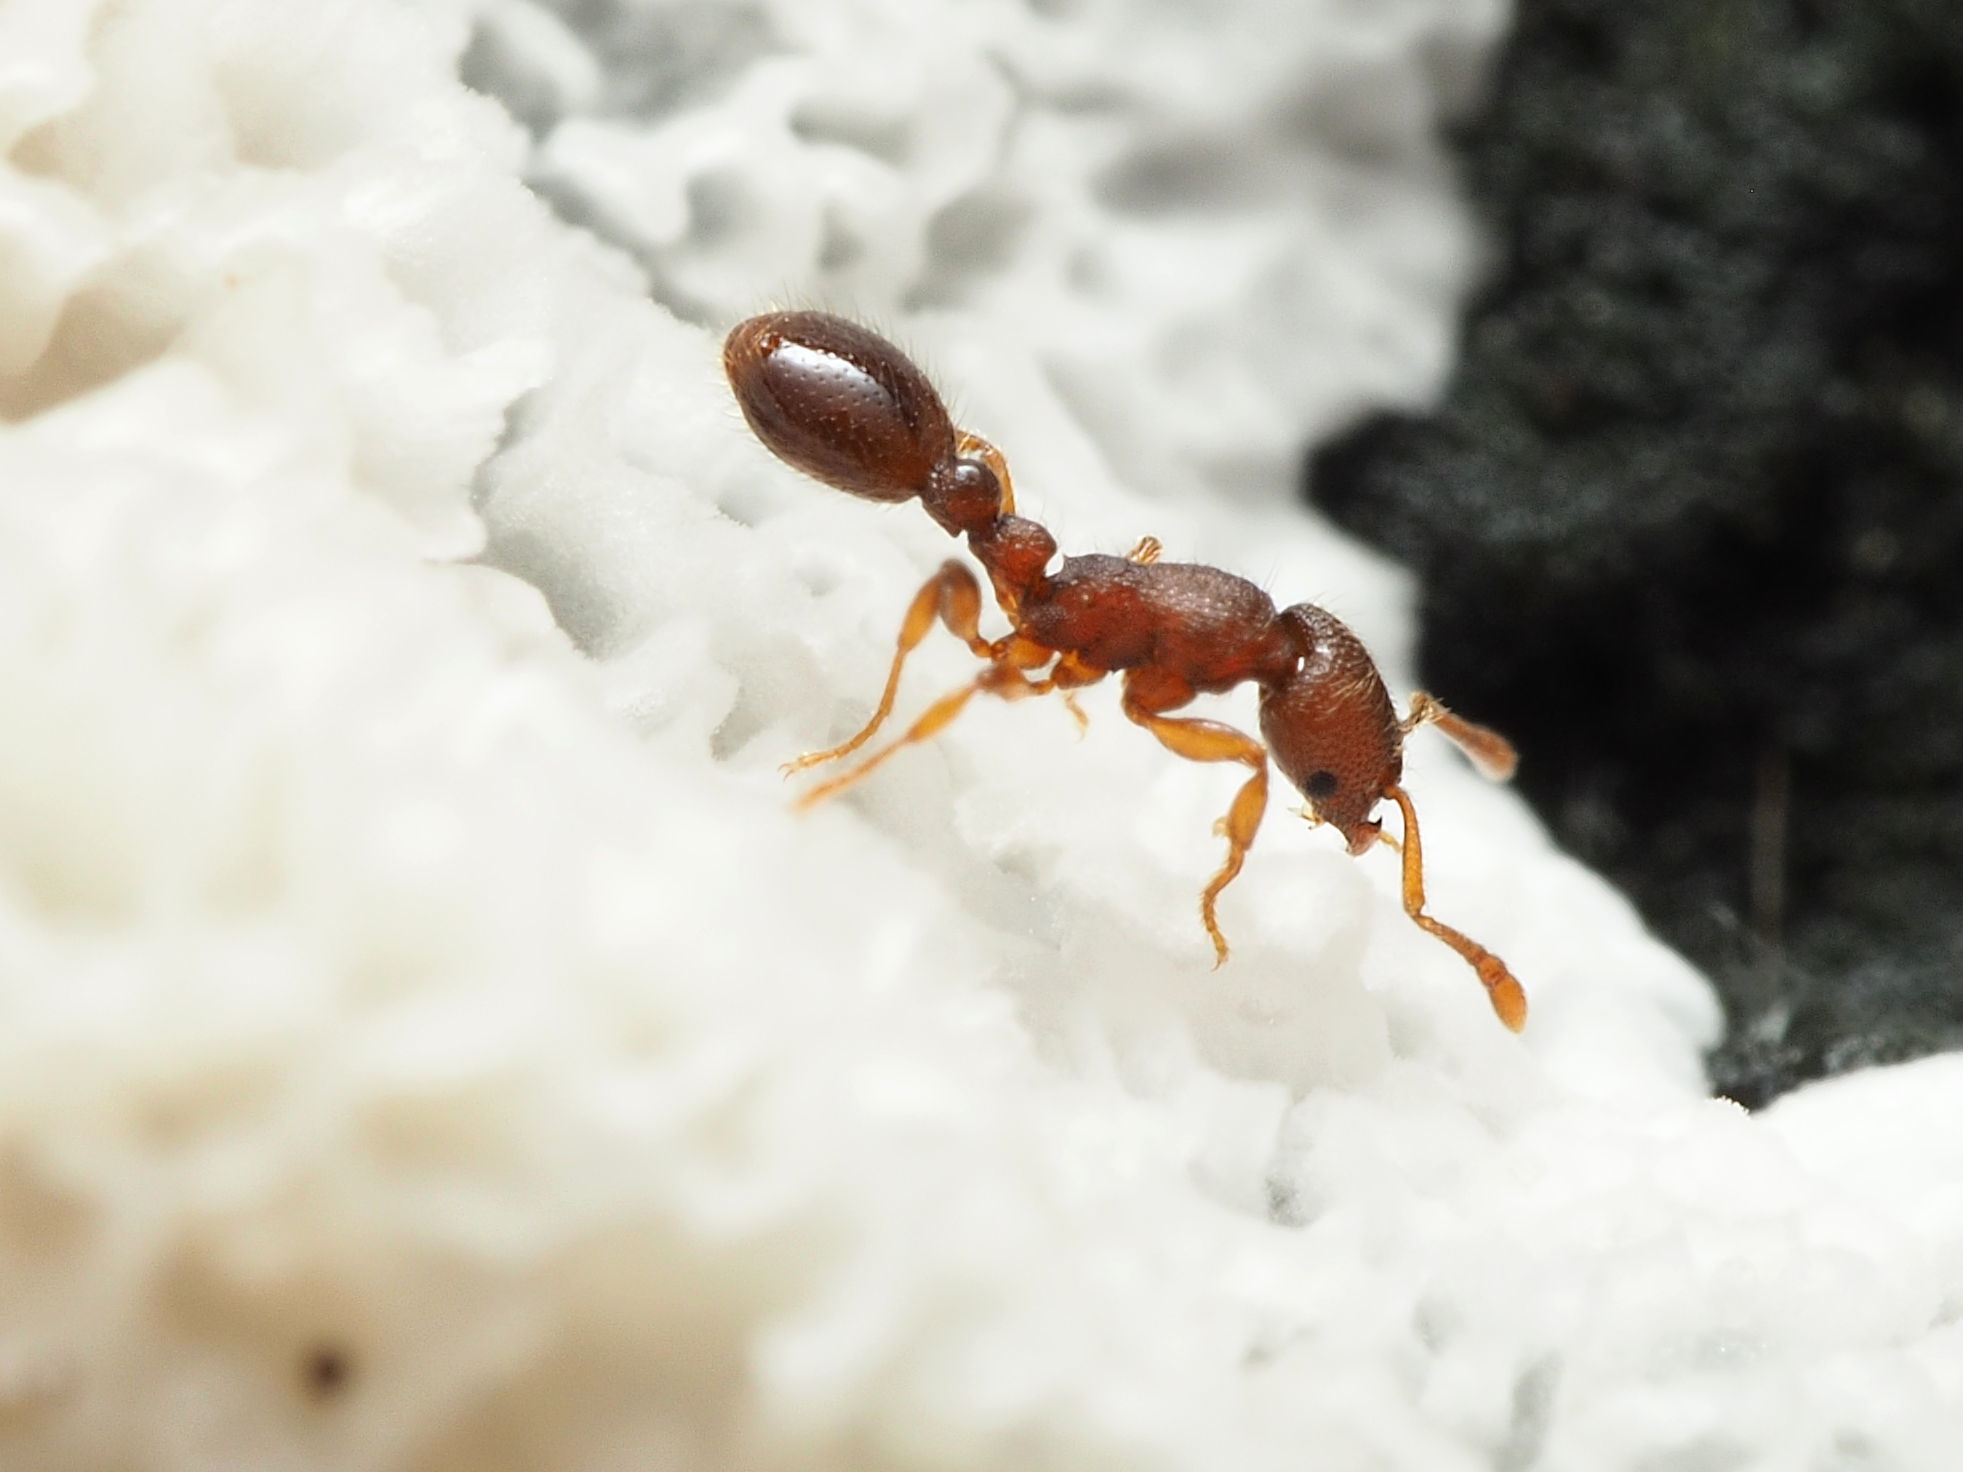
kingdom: Animalia
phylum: Arthropoda
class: Insecta
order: Hymenoptera
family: Formicidae
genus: Vollenhovia
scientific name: Vollenhovia emeryi
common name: Ant
